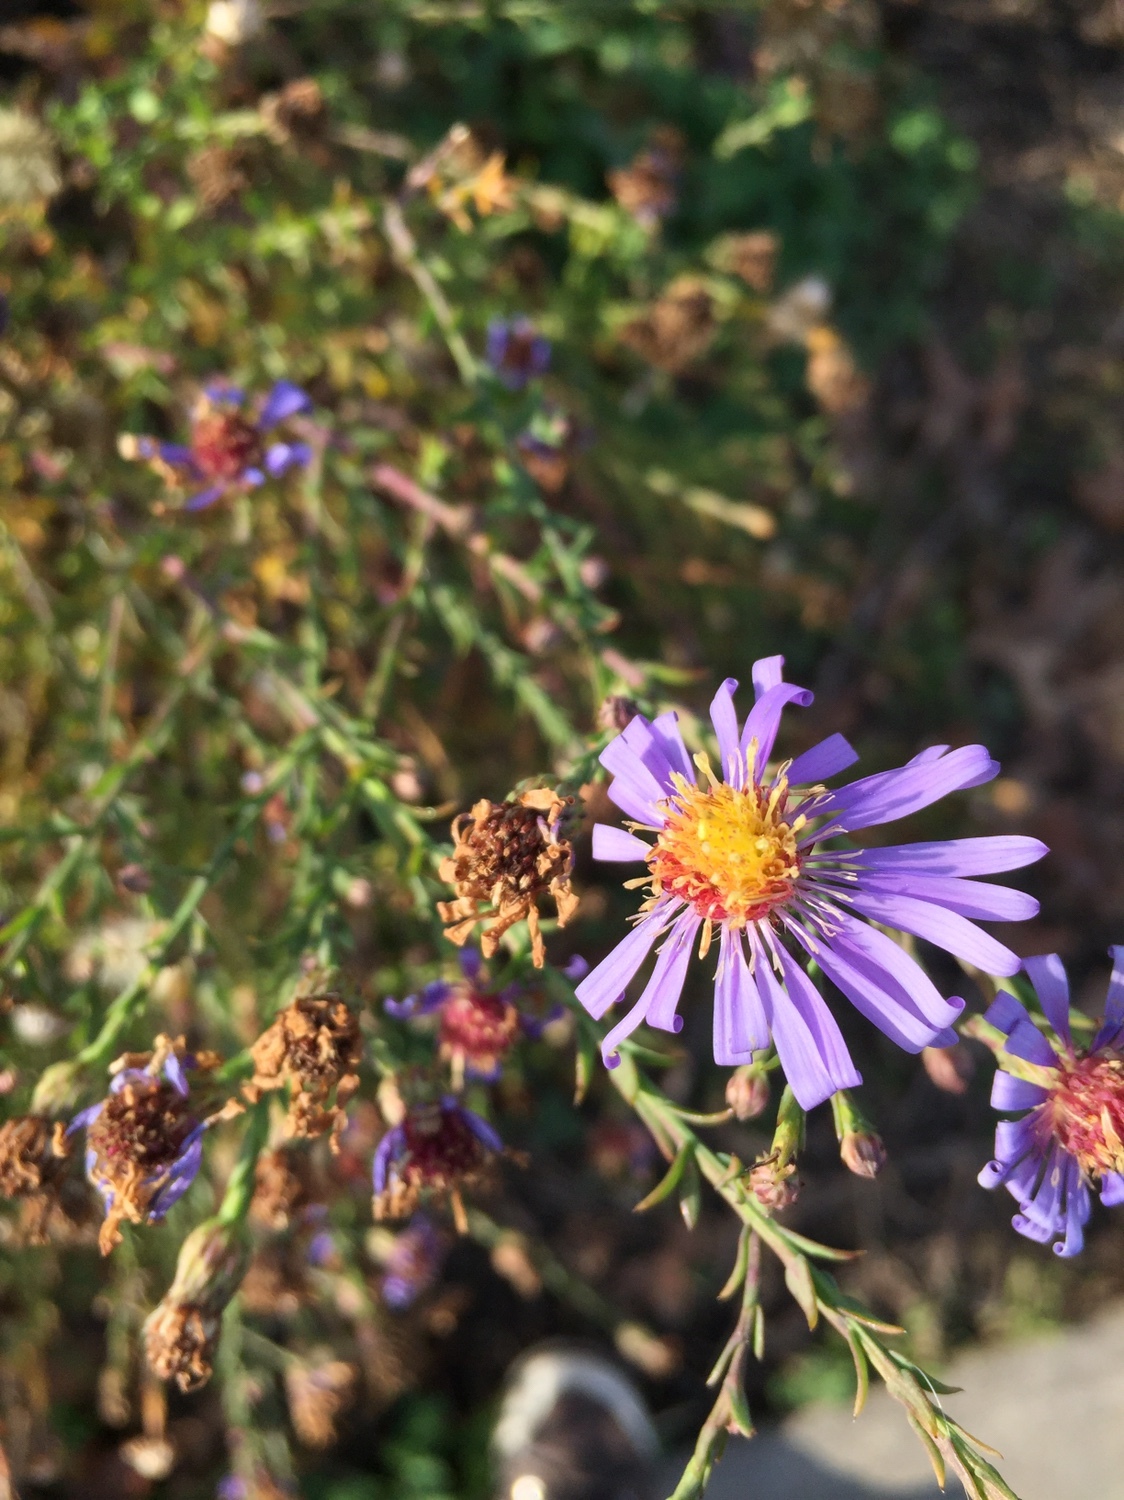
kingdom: Plantae
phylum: Tracheophyta
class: Magnoliopsida
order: Asterales
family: Asteraceae
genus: Symphyotrichum
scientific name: Symphyotrichum novae-angliae
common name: Michaelmas daisy
